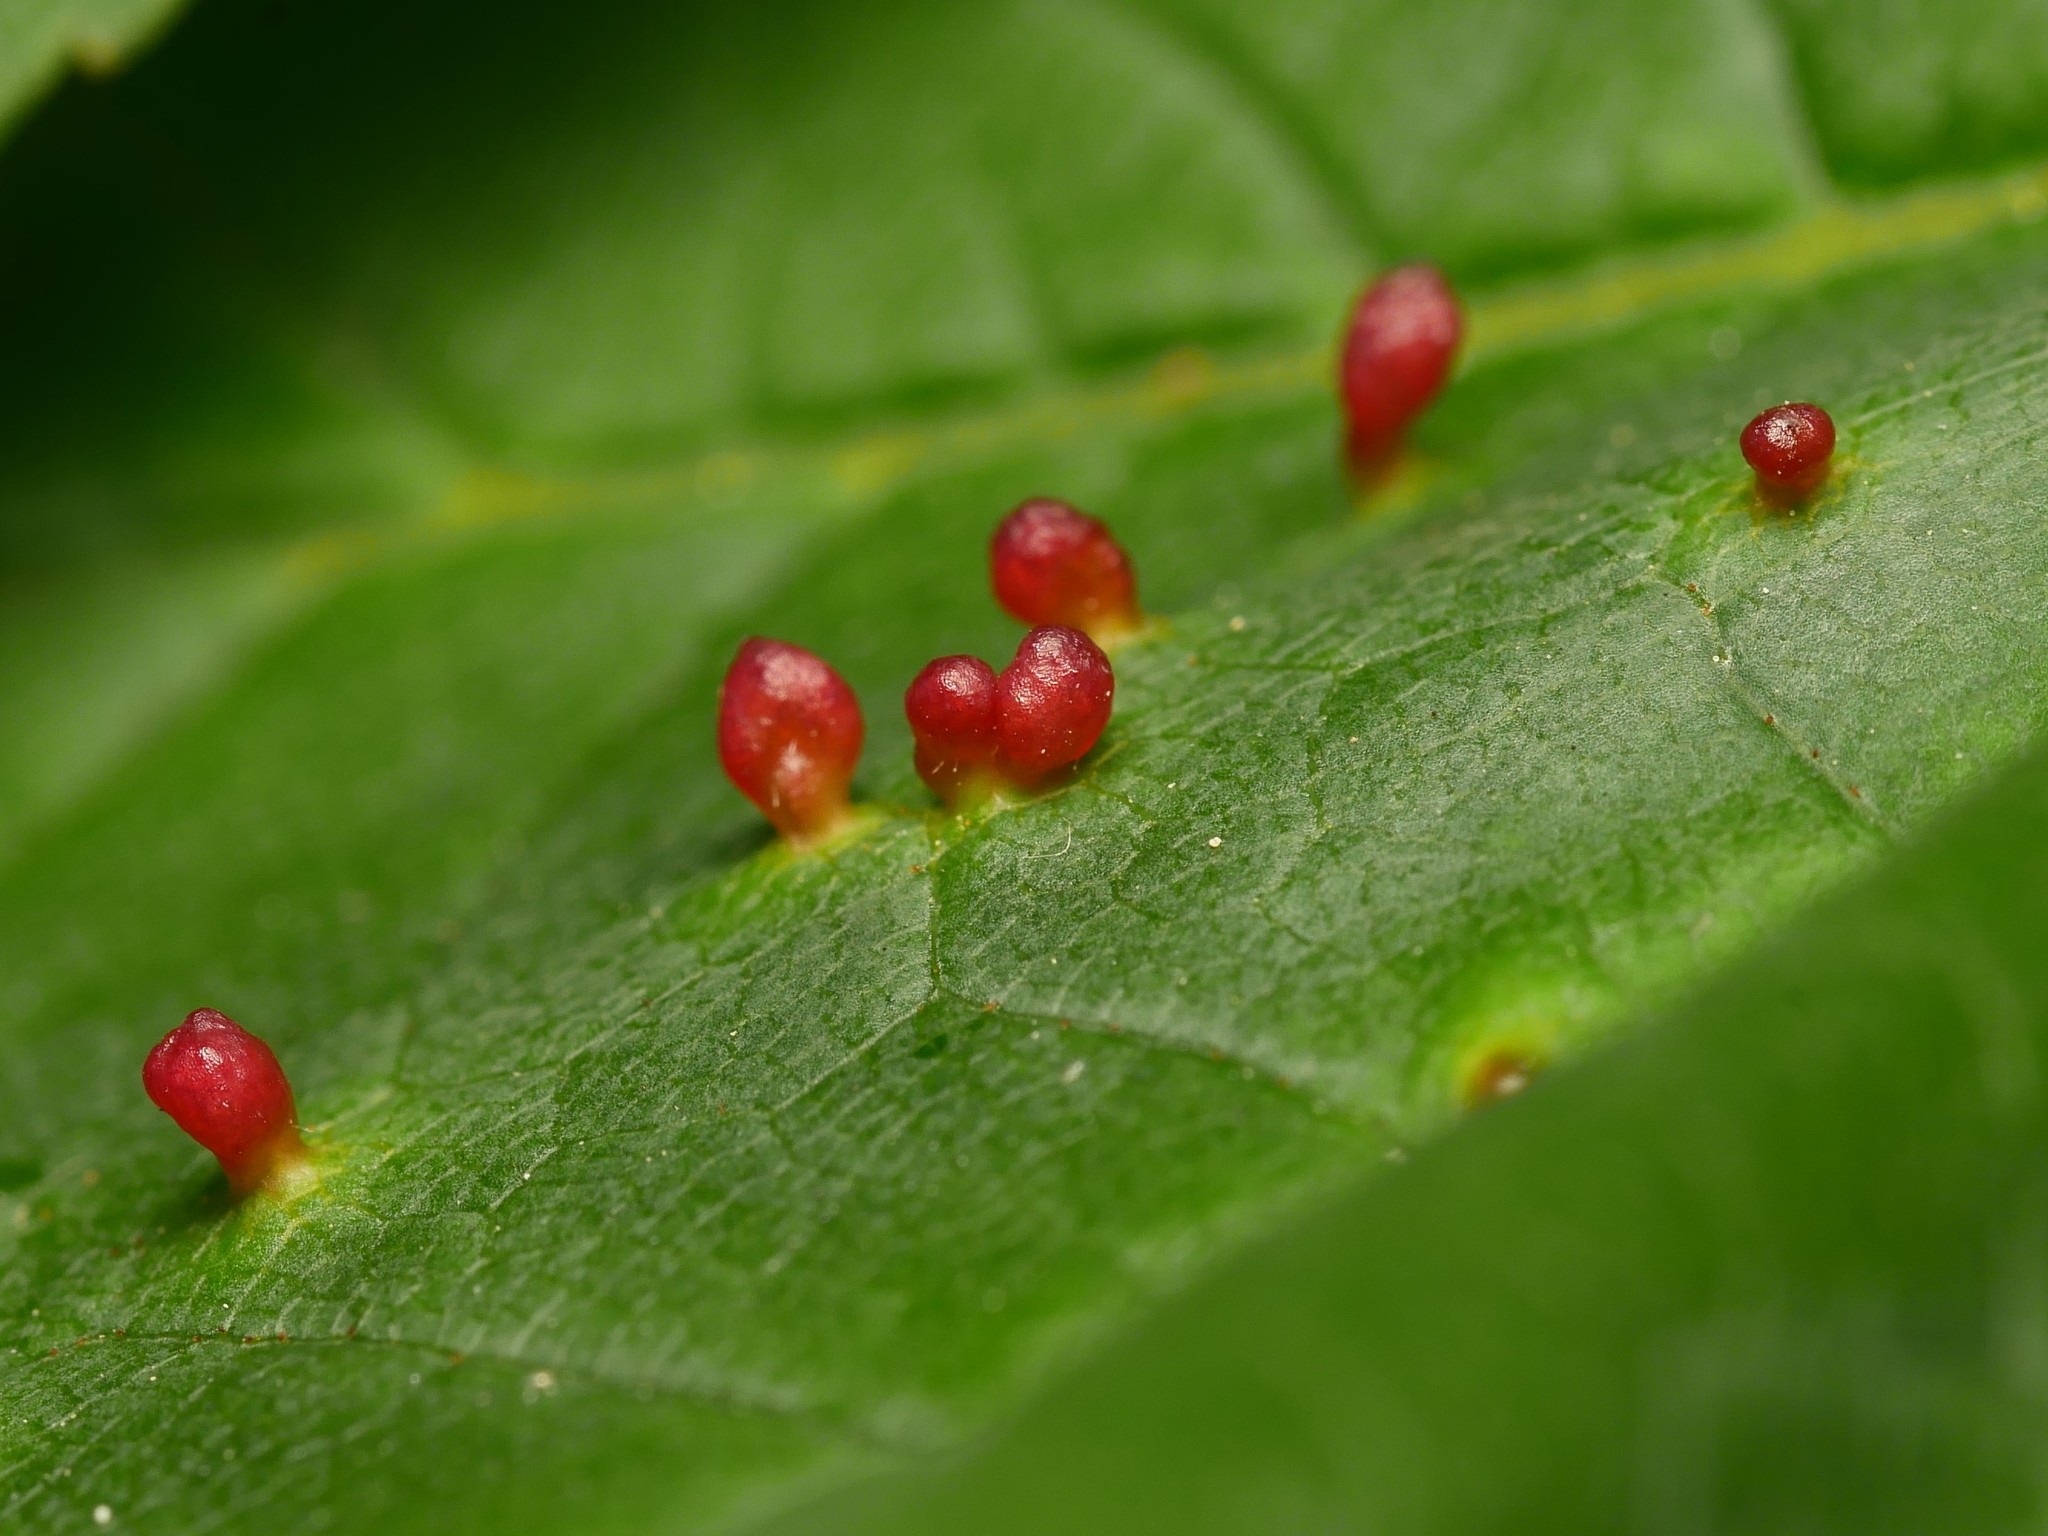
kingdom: Animalia
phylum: Arthropoda
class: Arachnida
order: Trombidiformes
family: Eriophyidae
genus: Aceria
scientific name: Aceria cephaloneus
